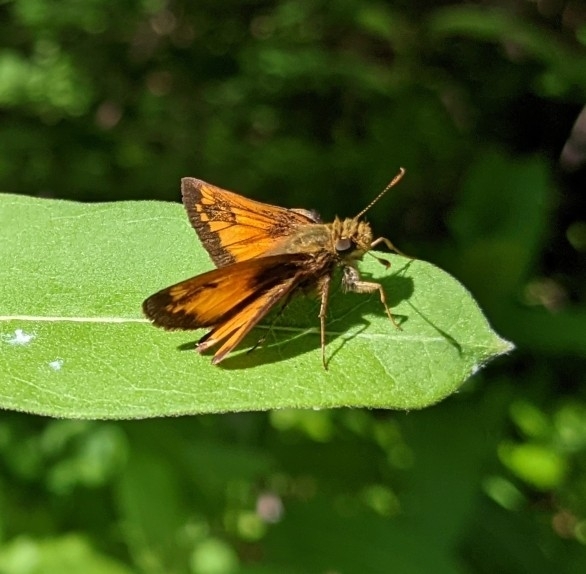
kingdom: Animalia
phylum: Arthropoda
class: Insecta
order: Lepidoptera
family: Hesperiidae
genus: Lon
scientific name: Lon hobomok
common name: Hobomok skipper
